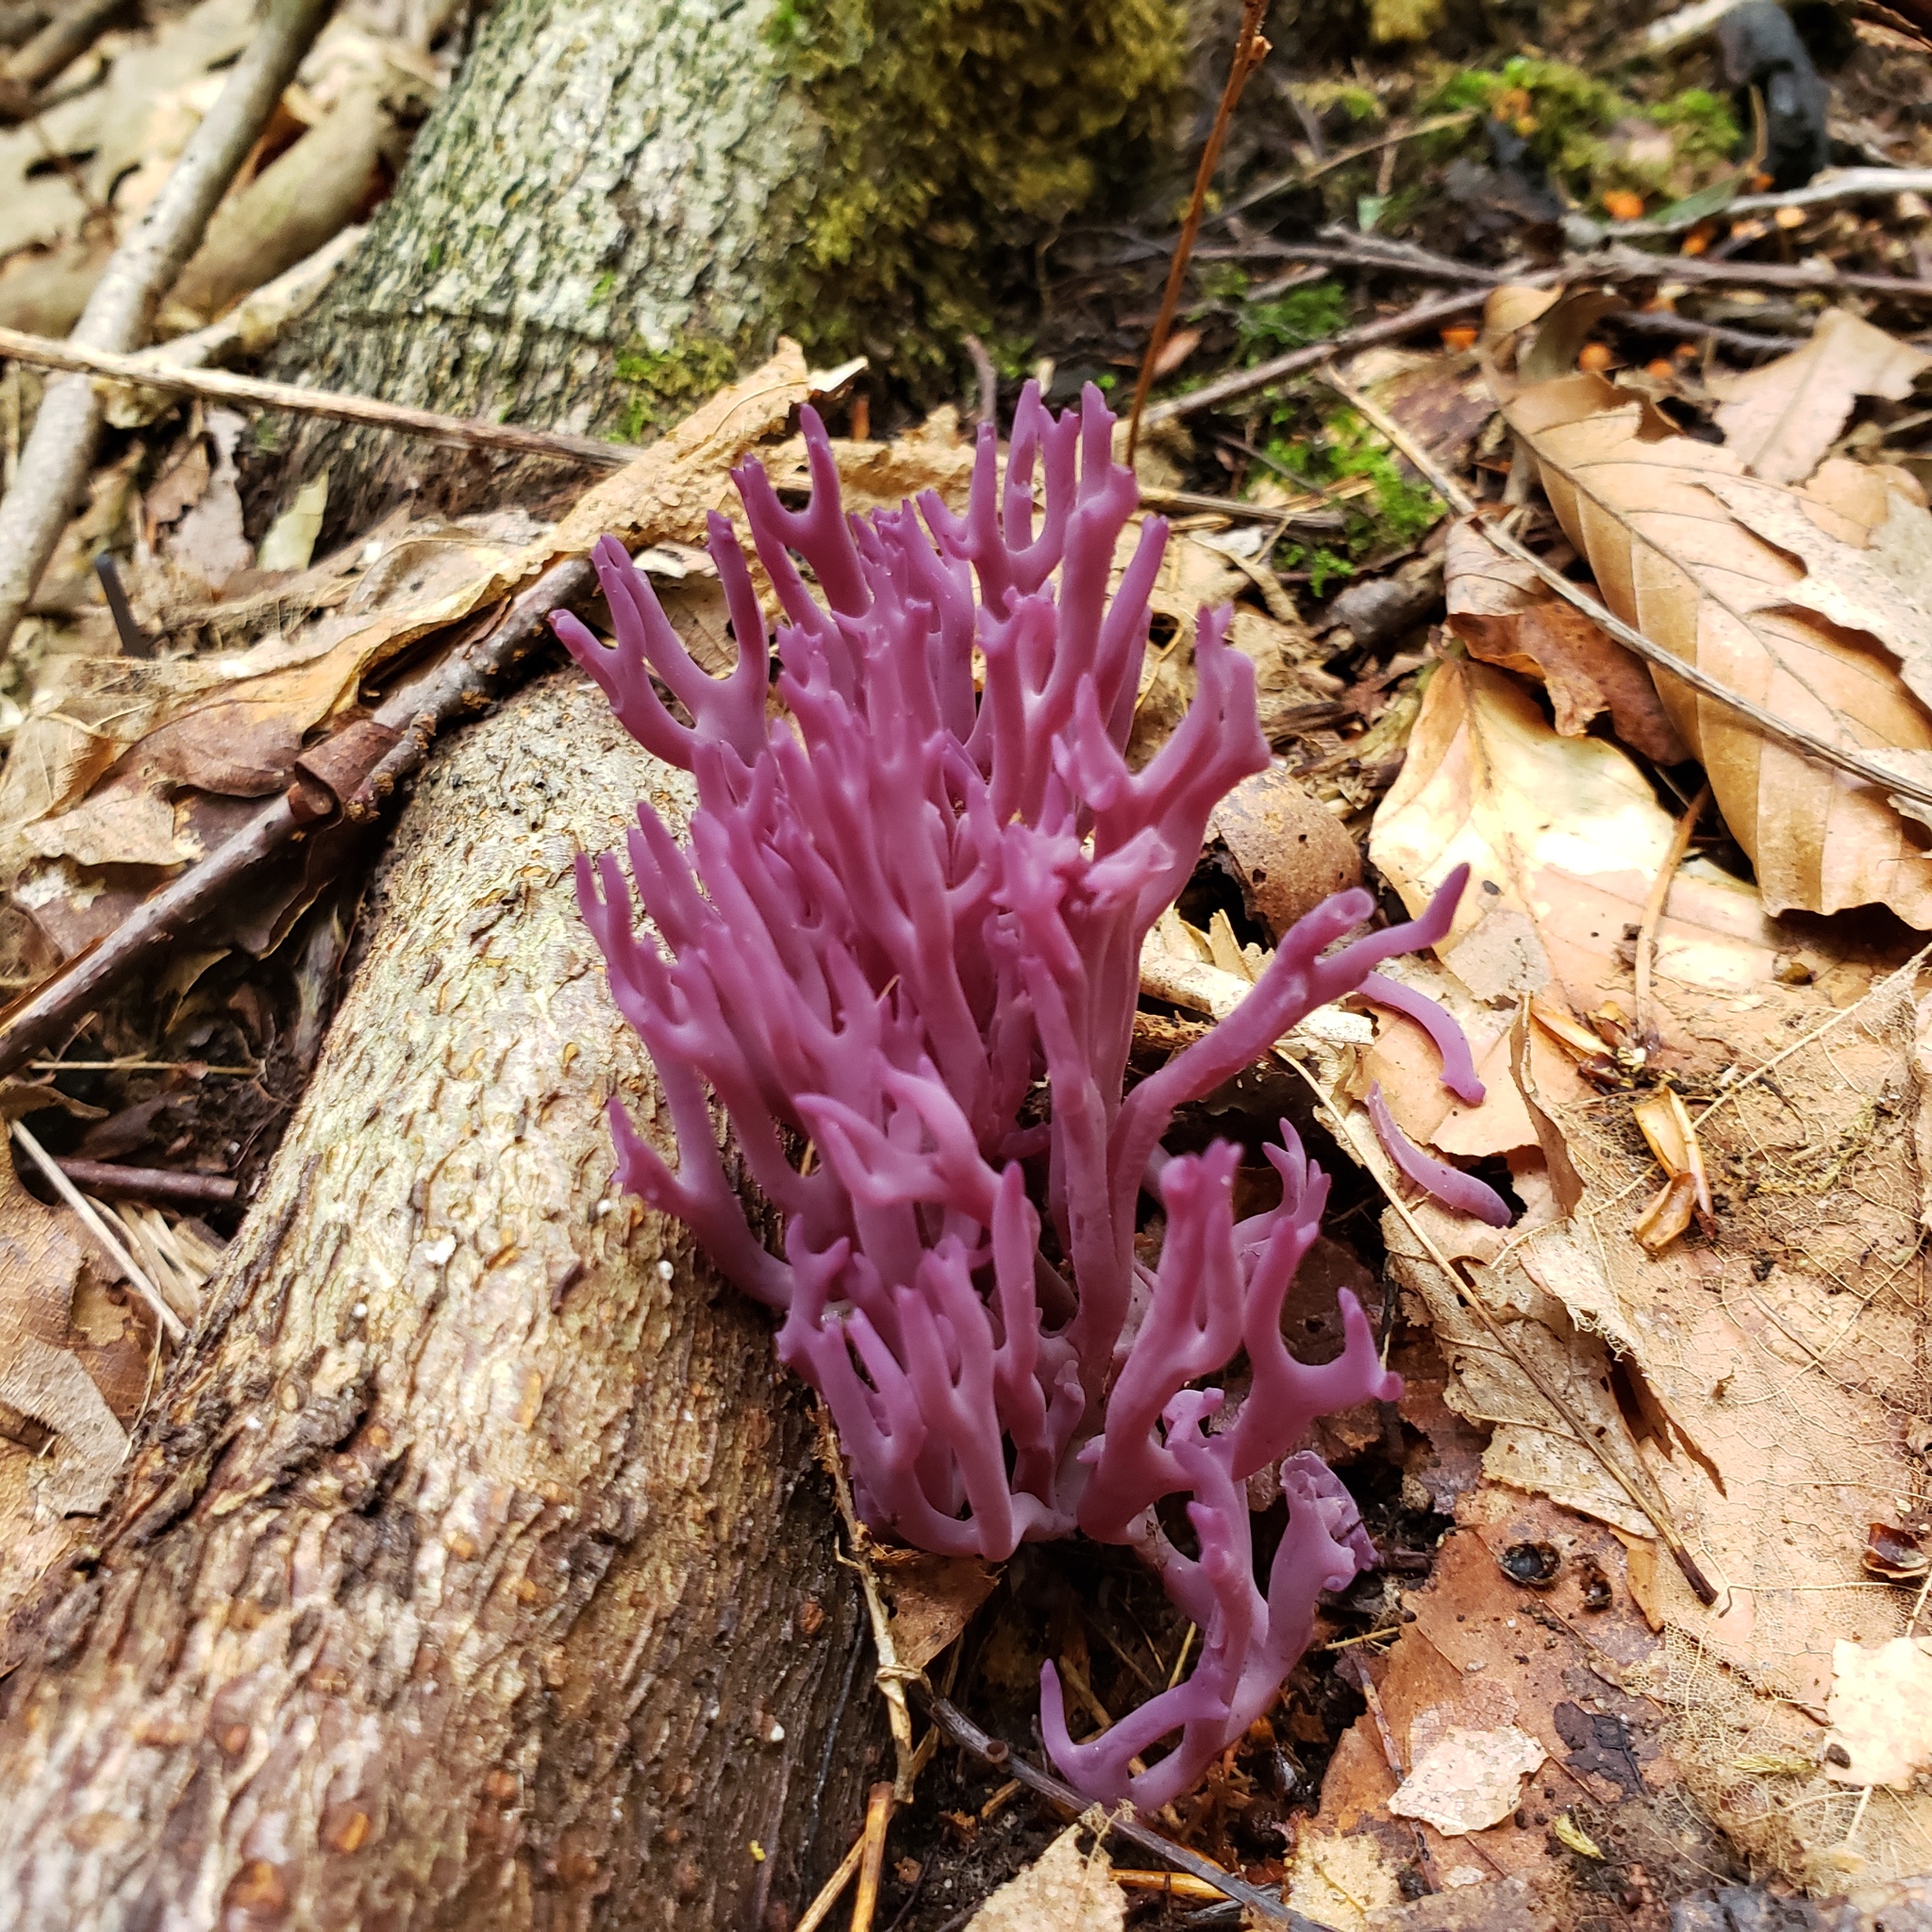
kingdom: Fungi
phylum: Basidiomycota
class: Agaricomycetes
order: Agaricales
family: Clavariaceae
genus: Clavaria
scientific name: Clavaria zollingeri
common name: Violet coral
